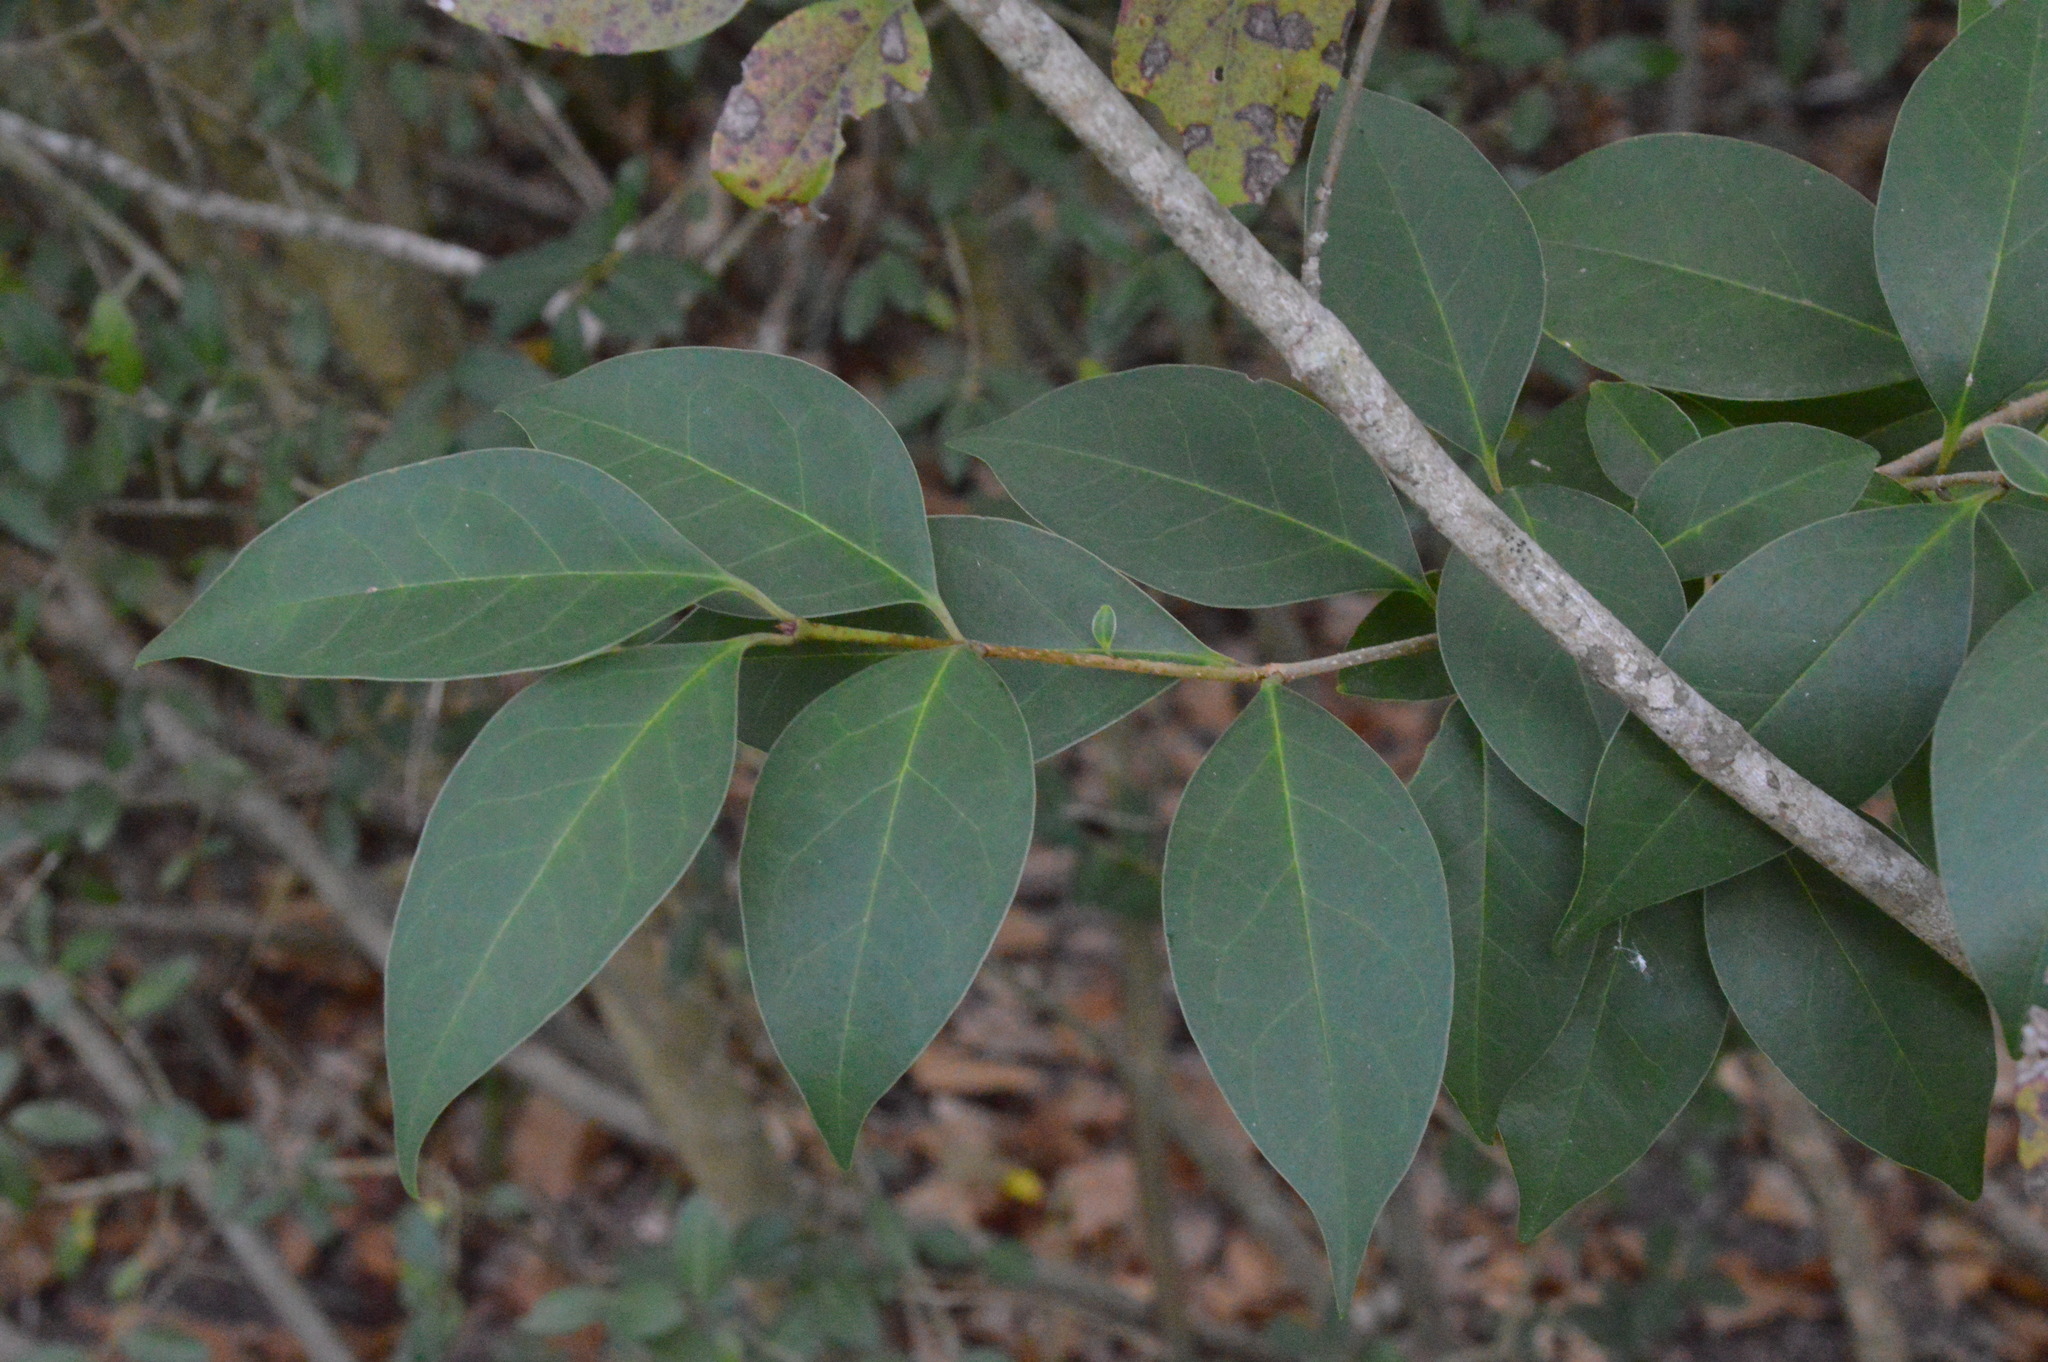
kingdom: Plantae
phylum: Tracheophyta
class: Magnoliopsida
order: Lamiales
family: Oleaceae
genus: Ligustrum
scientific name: Ligustrum lucidum
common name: Glossy privet
